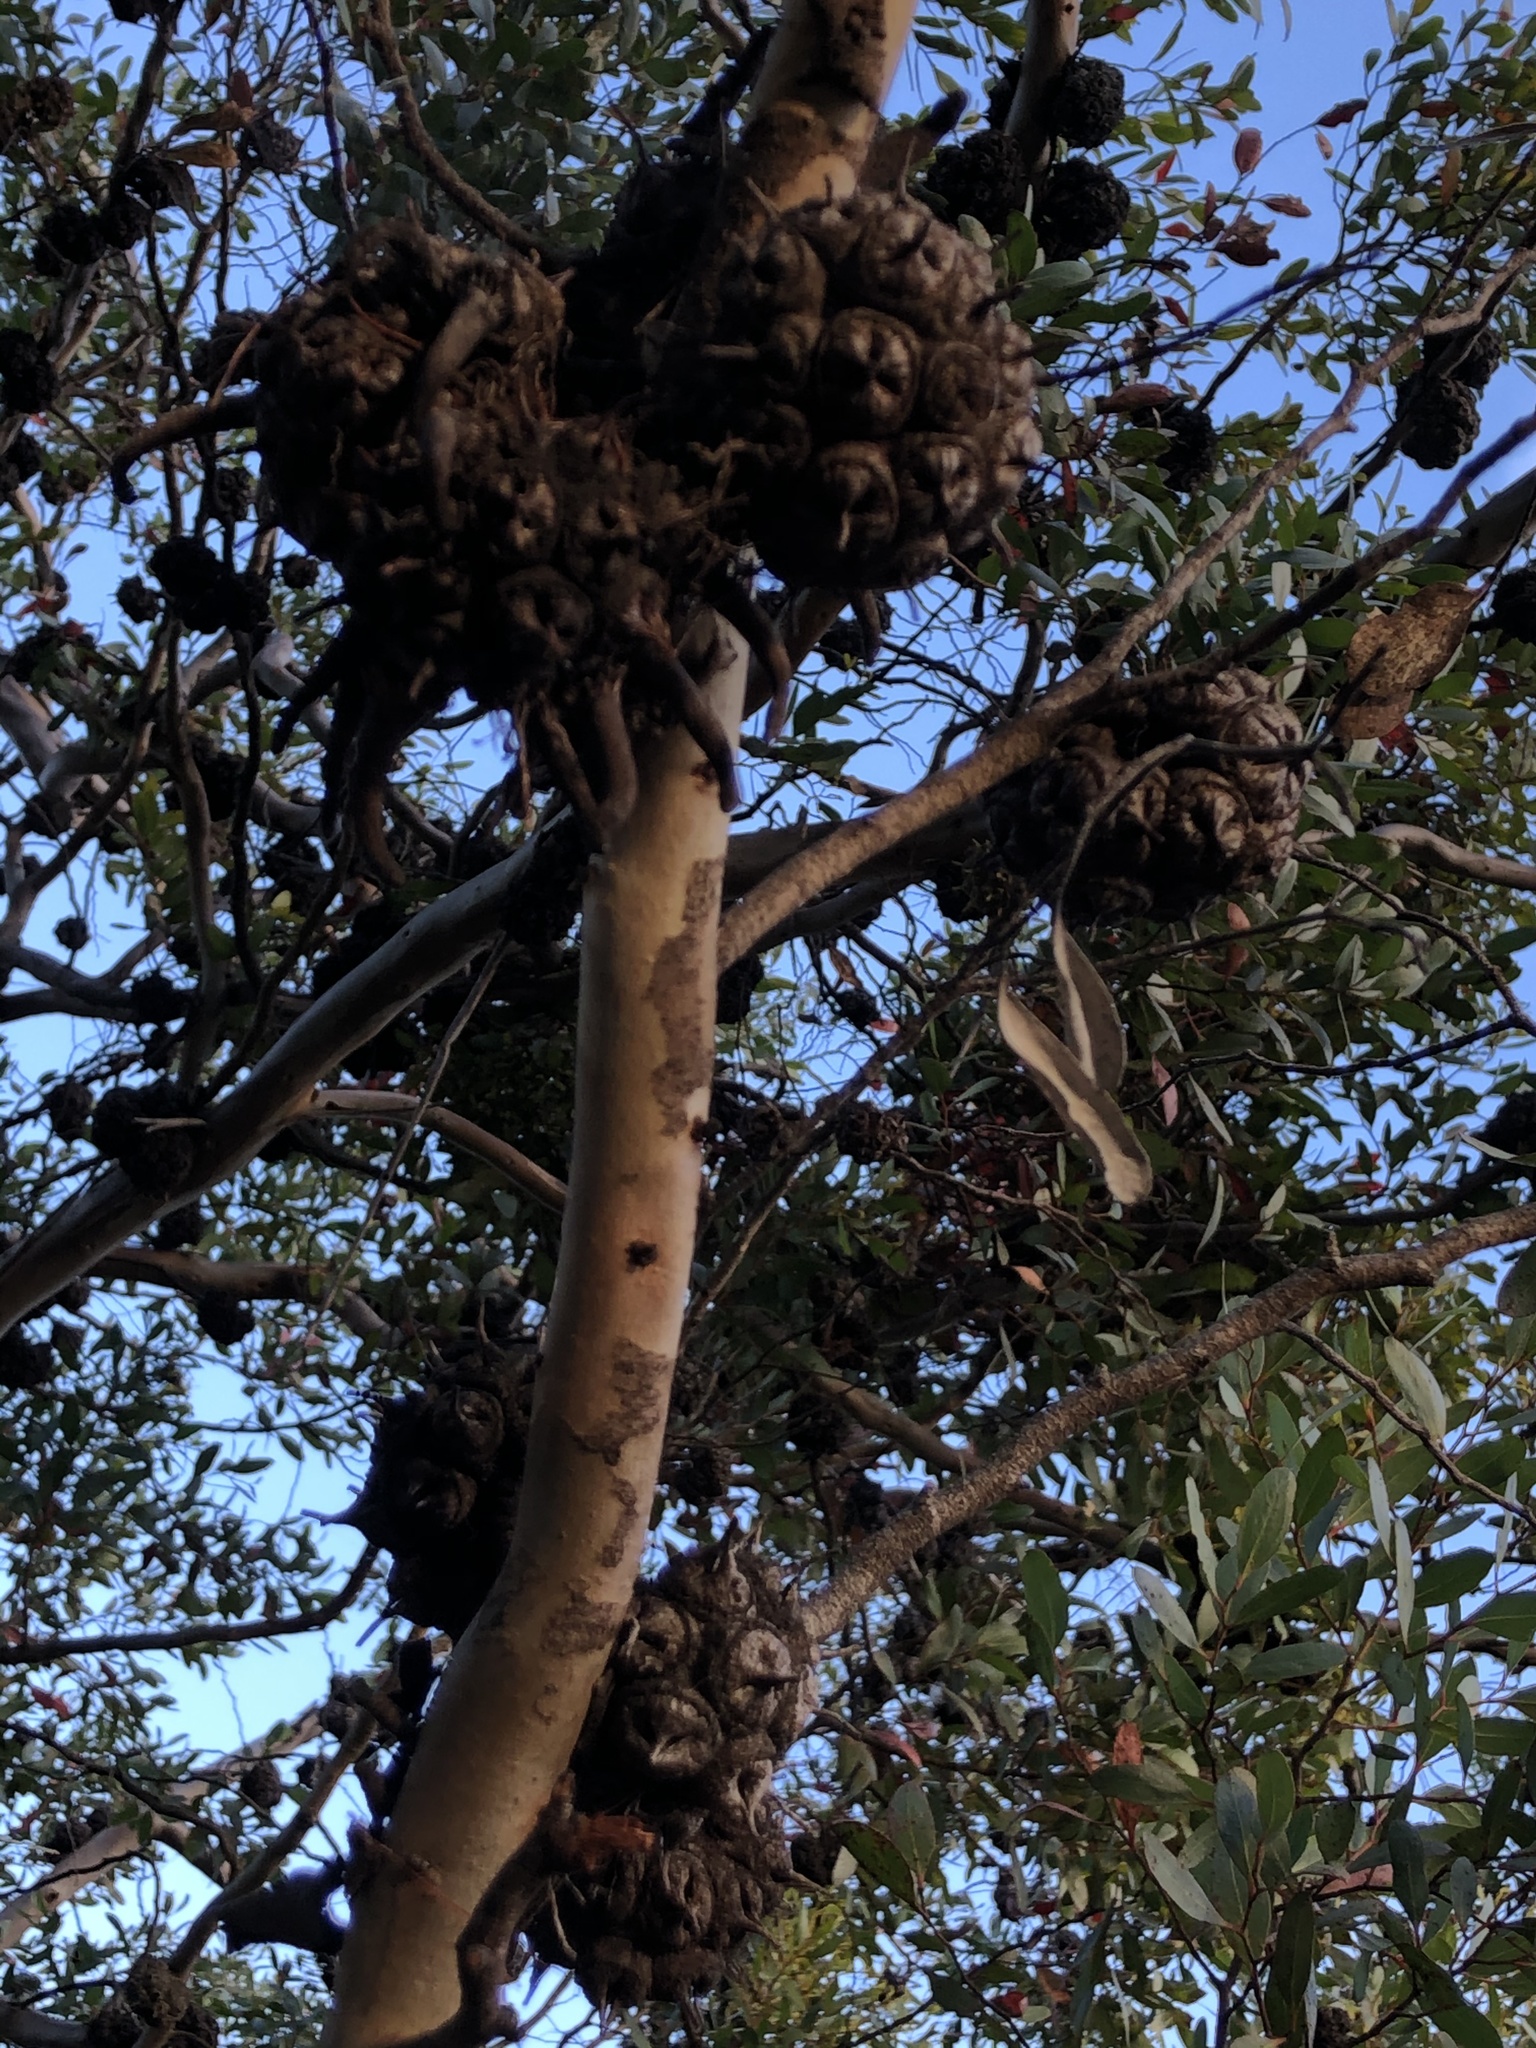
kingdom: Plantae
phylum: Tracheophyta
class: Magnoliopsida
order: Myrtales
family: Myrtaceae
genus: Eucalyptus
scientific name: Eucalyptus conferruminata
